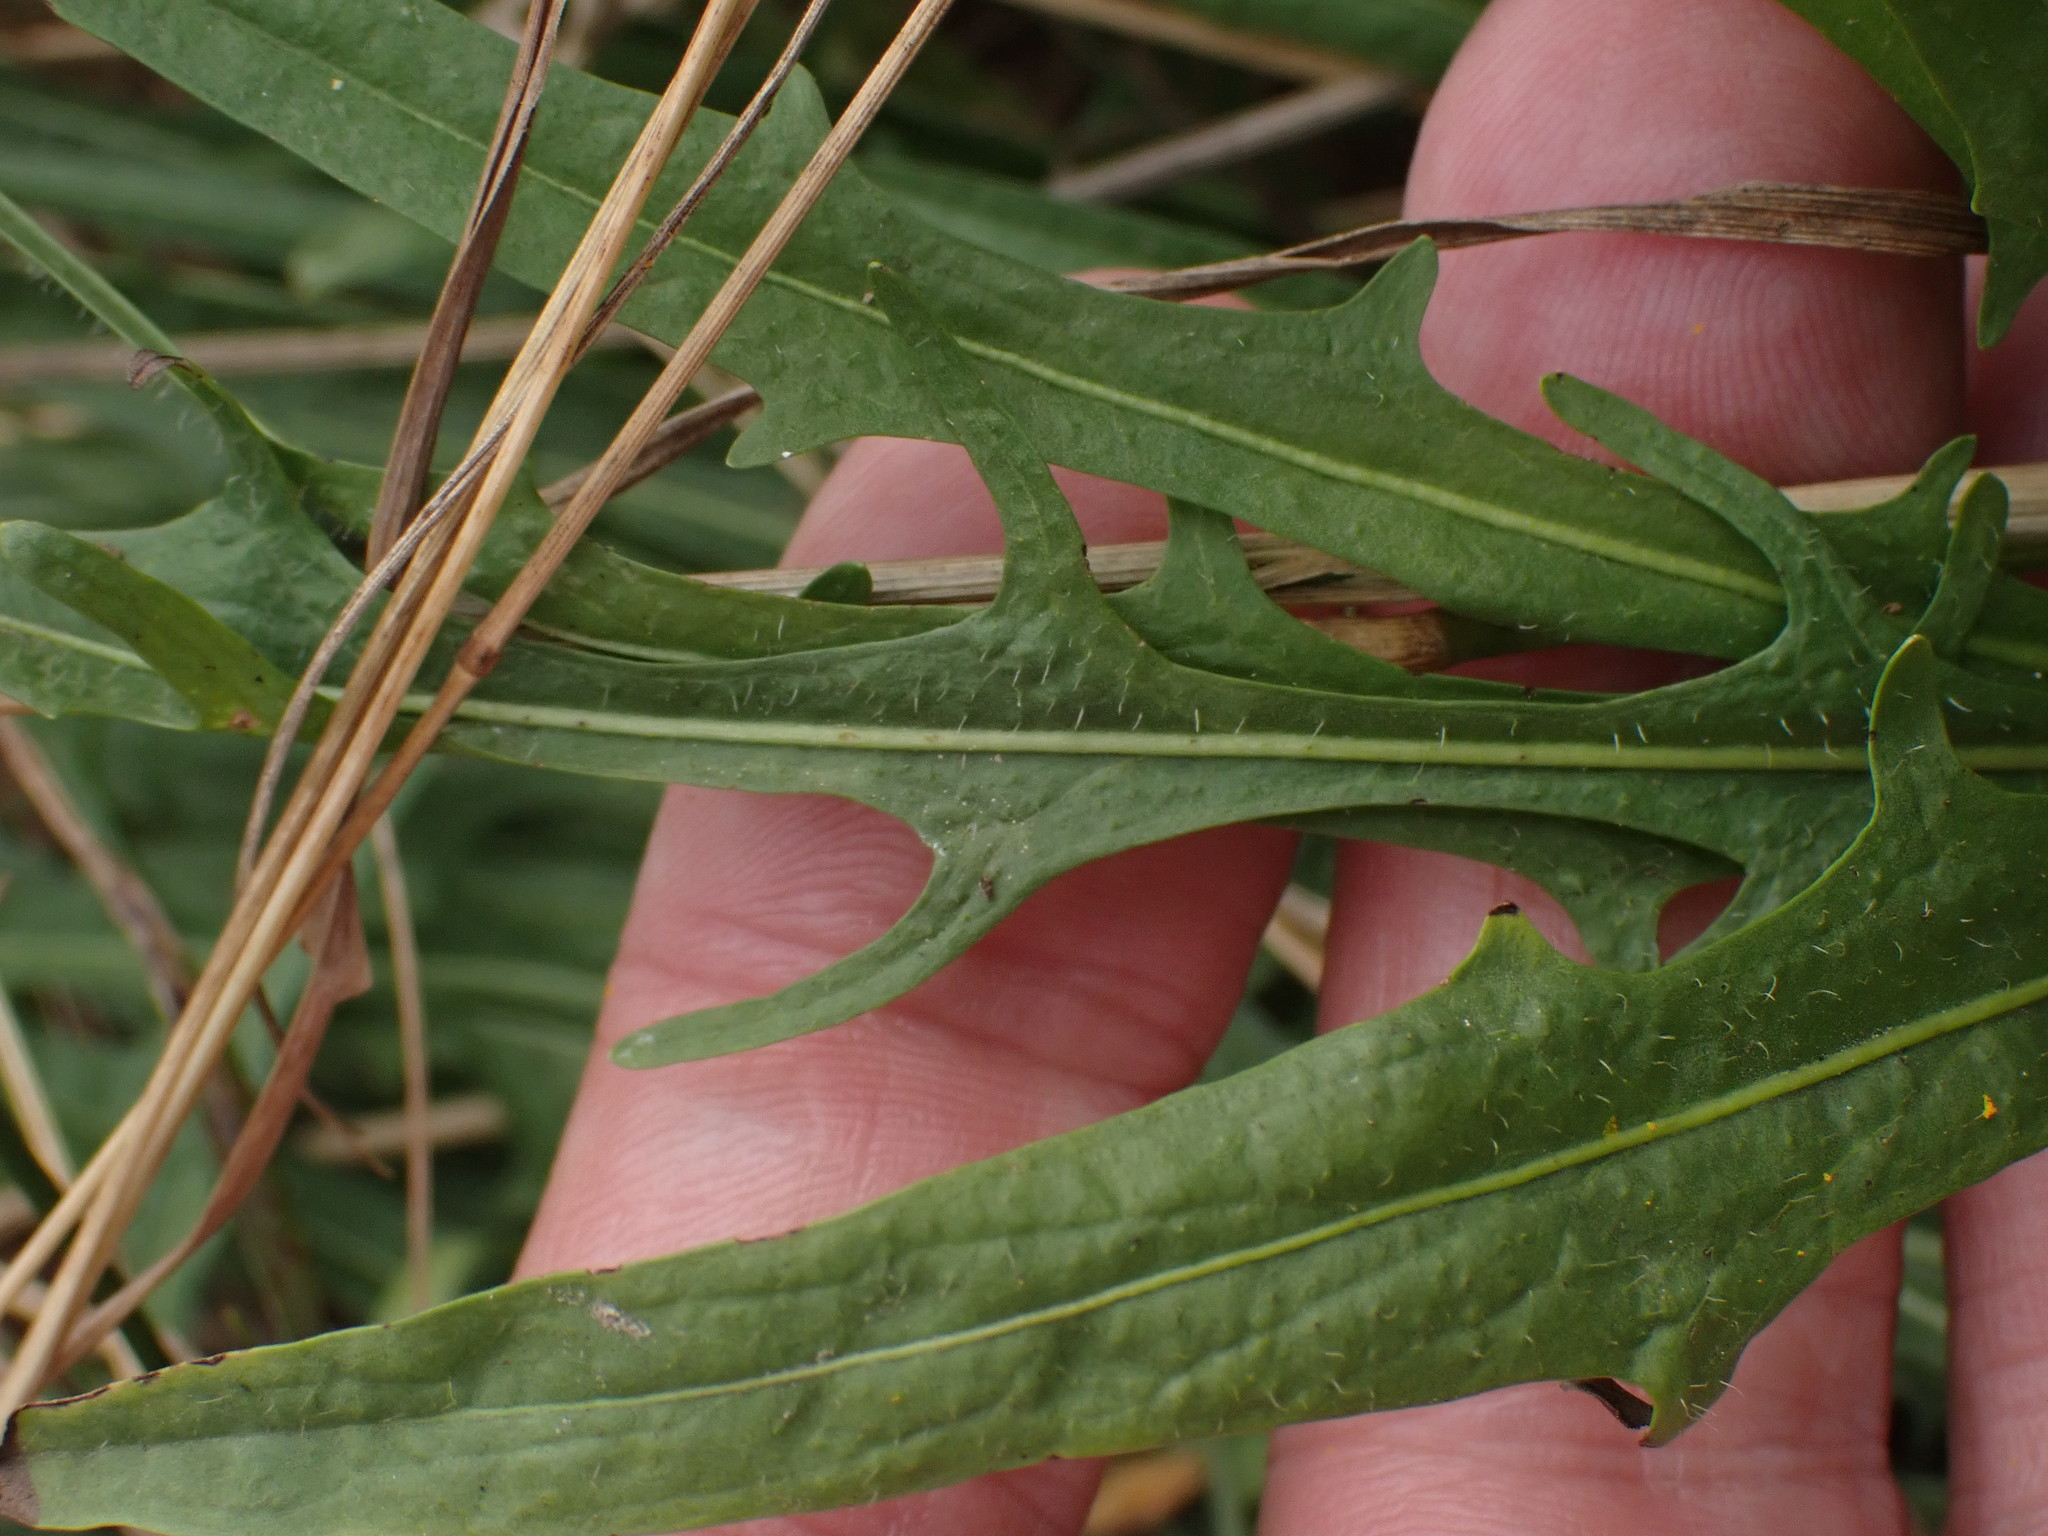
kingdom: Plantae
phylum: Tracheophyta
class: Magnoliopsida
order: Asterales
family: Asteraceae
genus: Scorzoneroides
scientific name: Scorzoneroides autumnalis
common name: Autumn hawkbit
